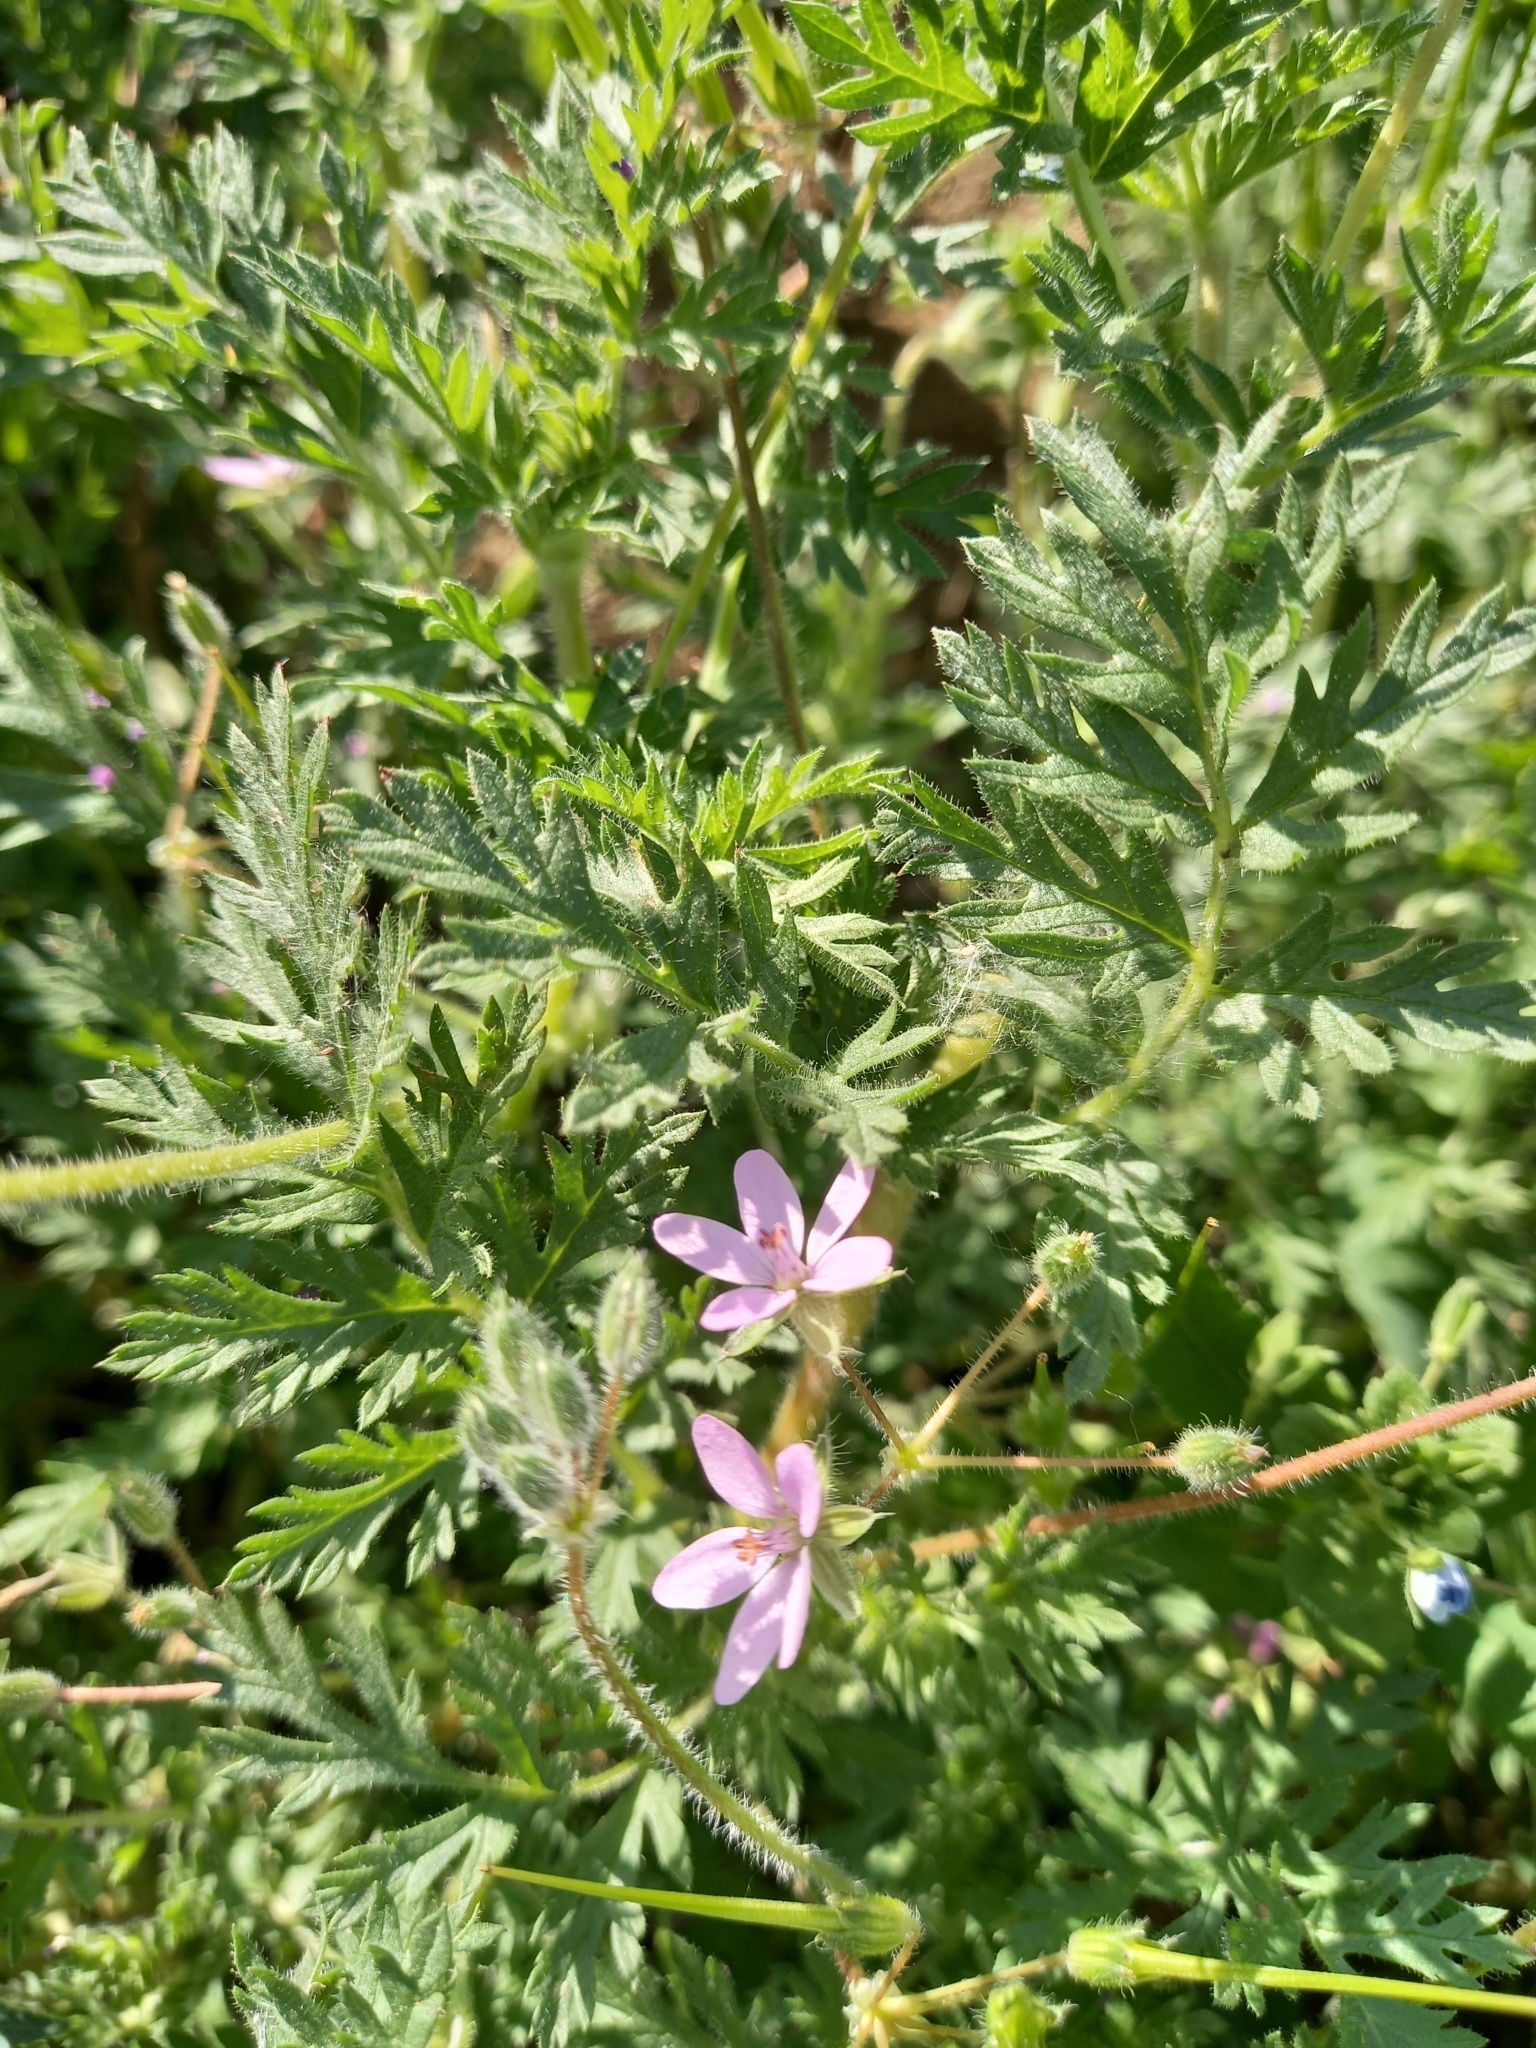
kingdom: Plantae
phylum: Tracheophyta
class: Magnoliopsida
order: Geraniales
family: Geraniaceae
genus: Erodium
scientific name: Erodium cicutarium
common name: Common stork's-bill
